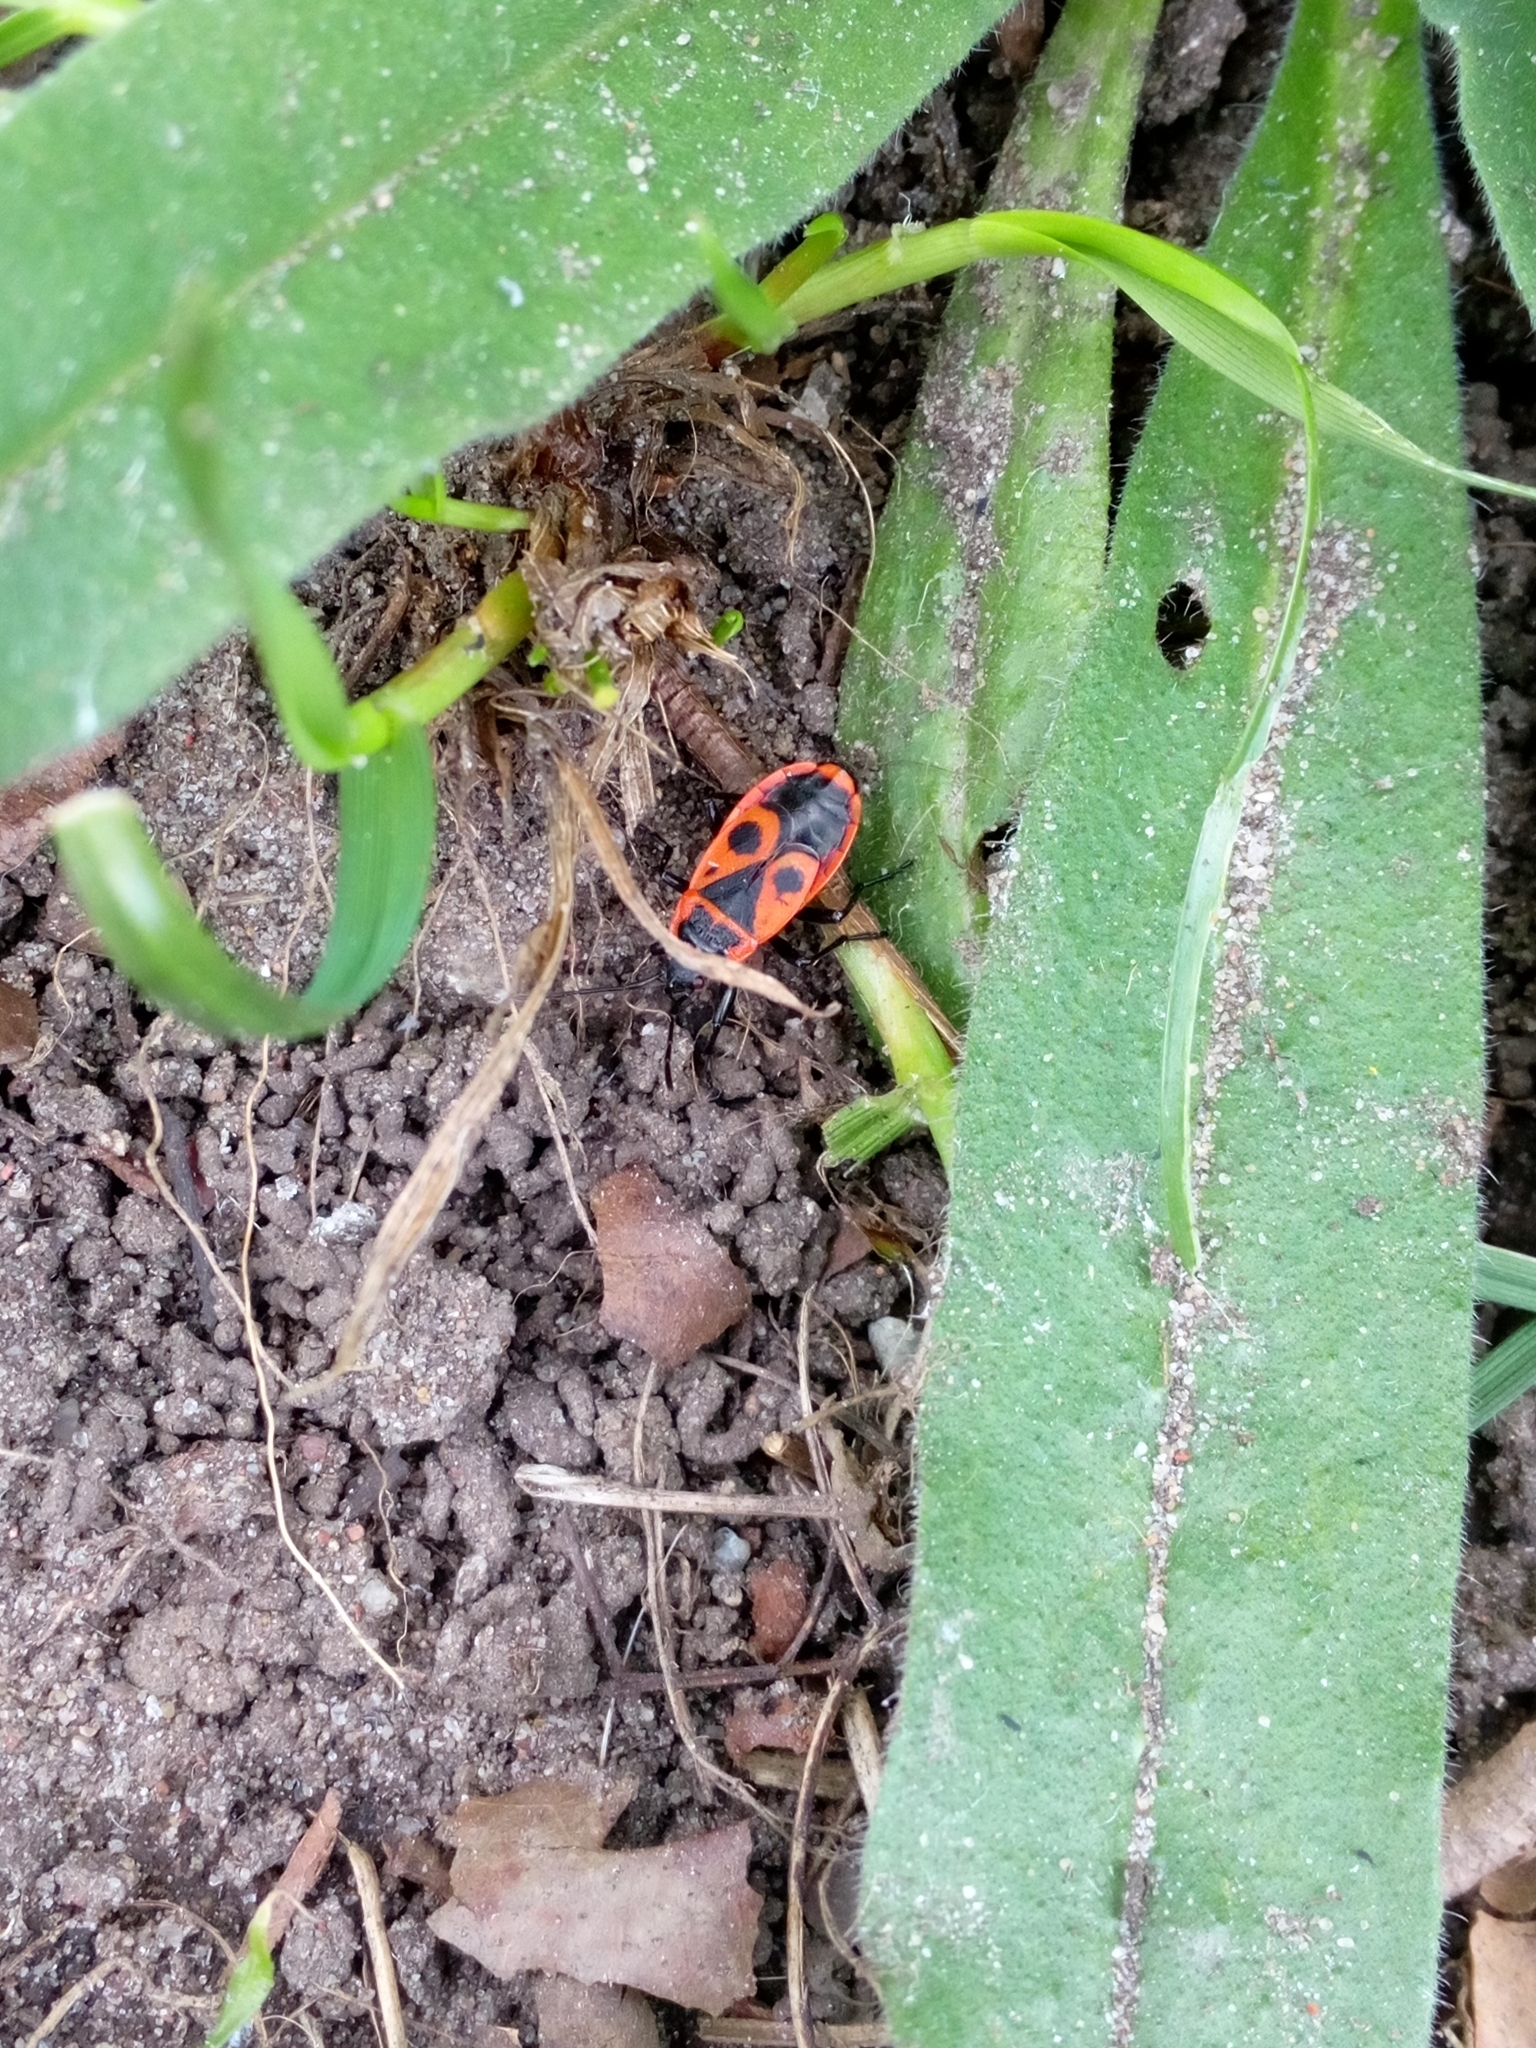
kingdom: Animalia
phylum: Arthropoda
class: Insecta
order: Hemiptera
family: Pyrrhocoridae
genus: Pyrrhocoris
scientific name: Pyrrhocoris apterus
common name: Firebug
